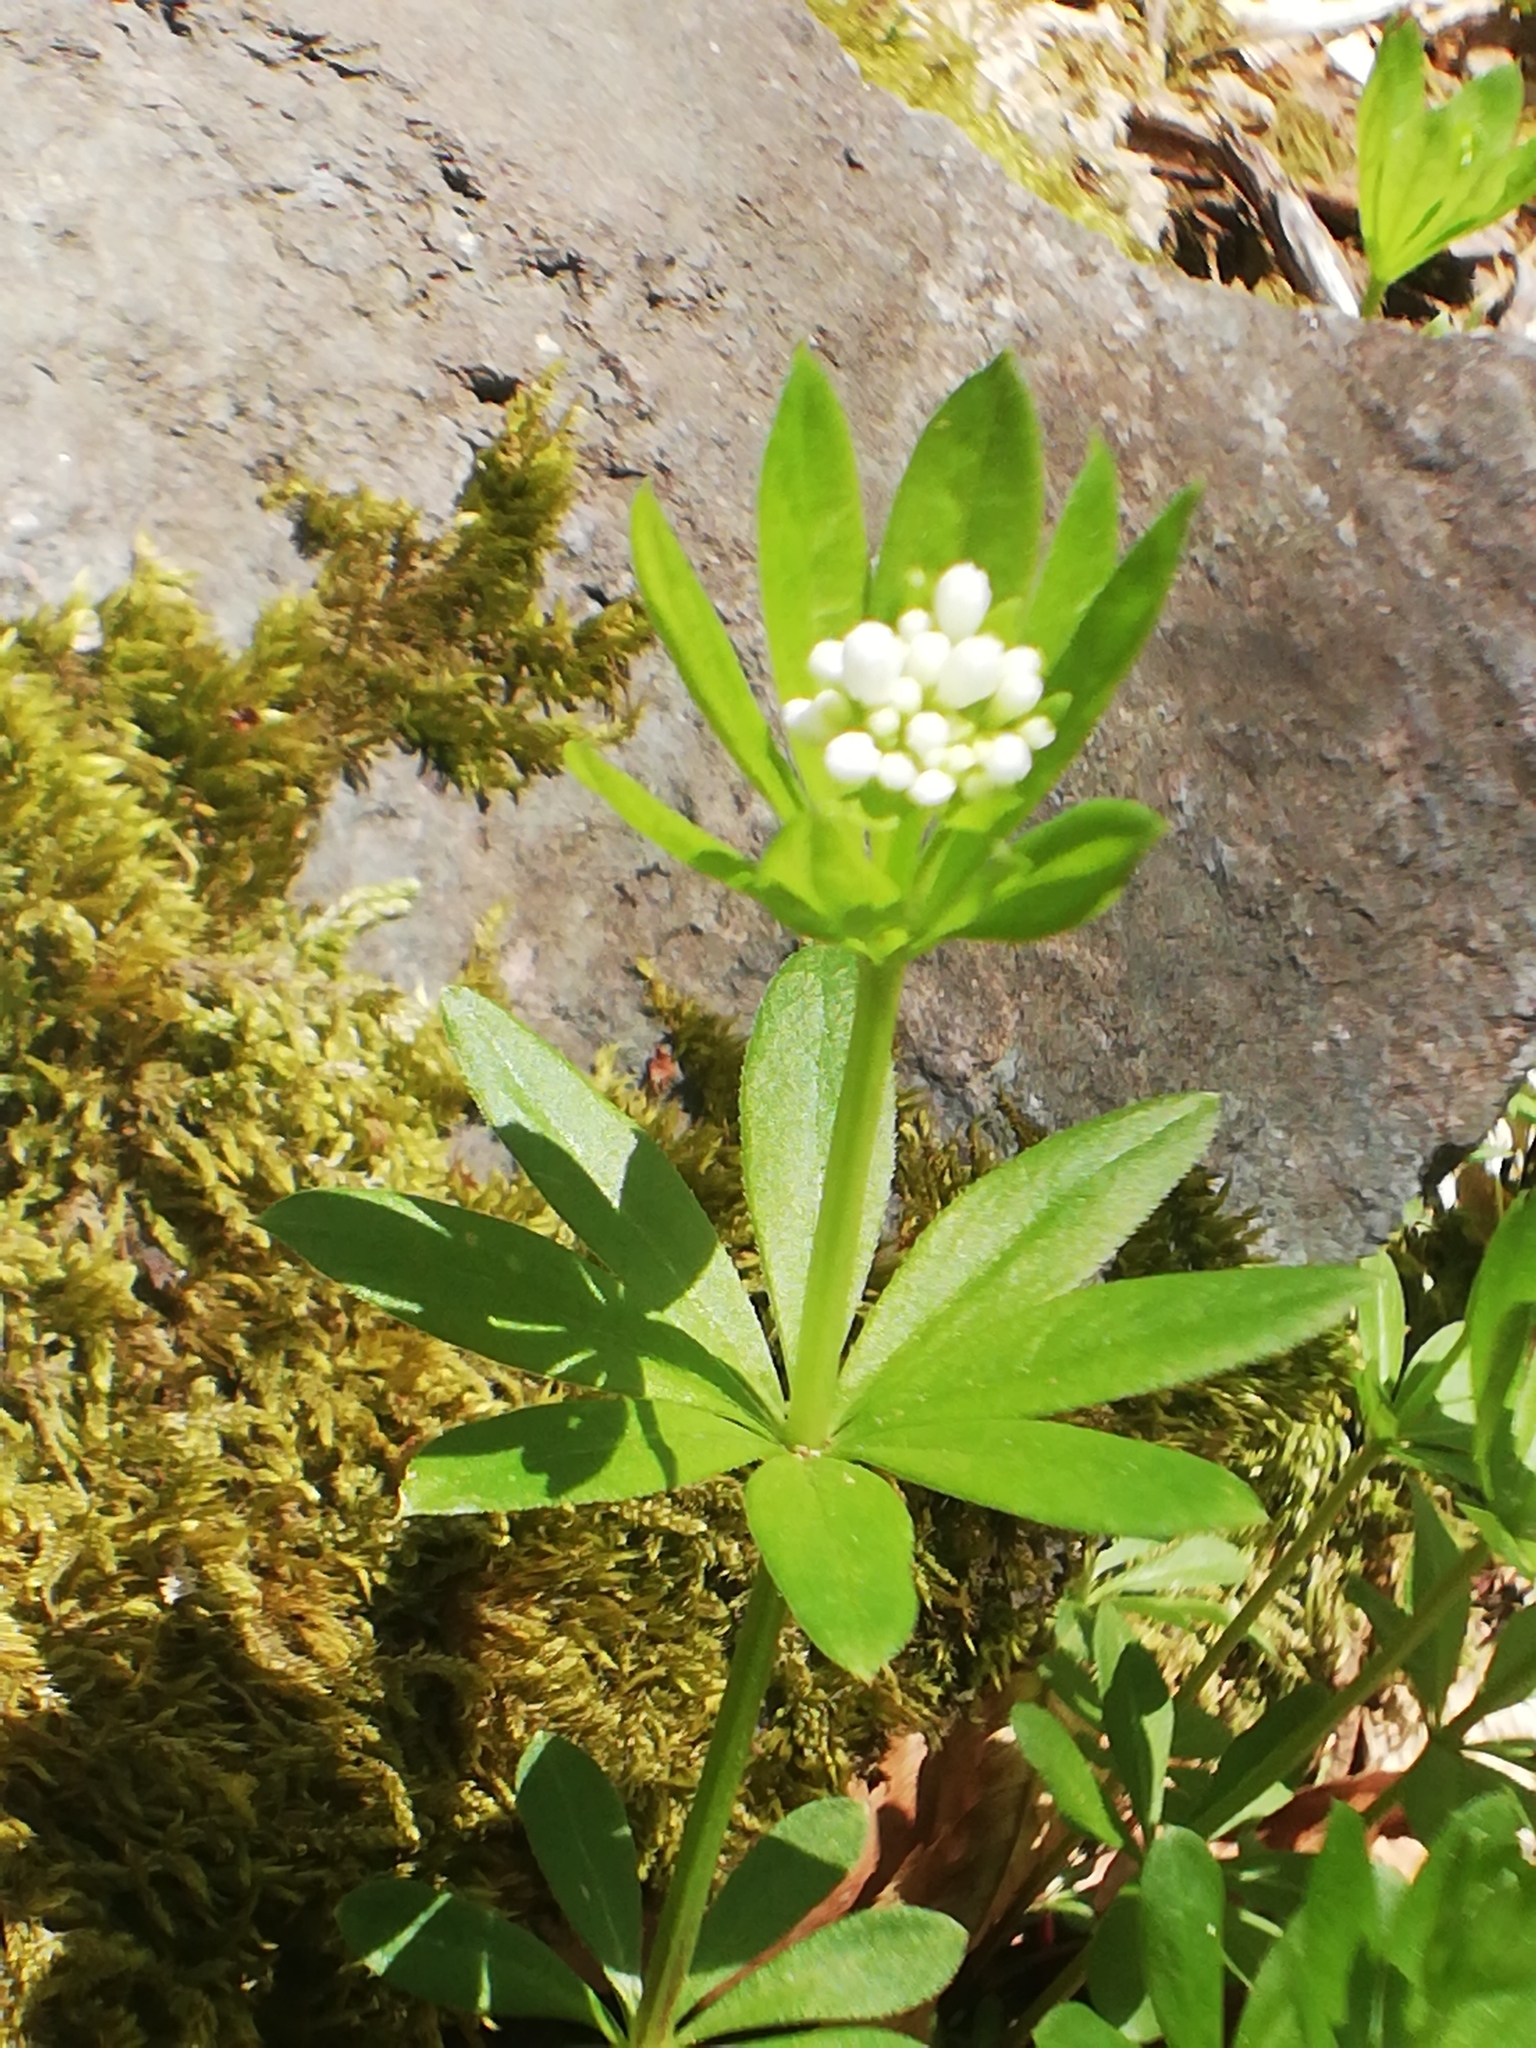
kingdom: Plantae
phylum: Tracheophyta
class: Magnoliopsida
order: Gentianales
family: Rubiaceae
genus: Galium
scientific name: Galium odoratum
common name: Sweet woodruff
